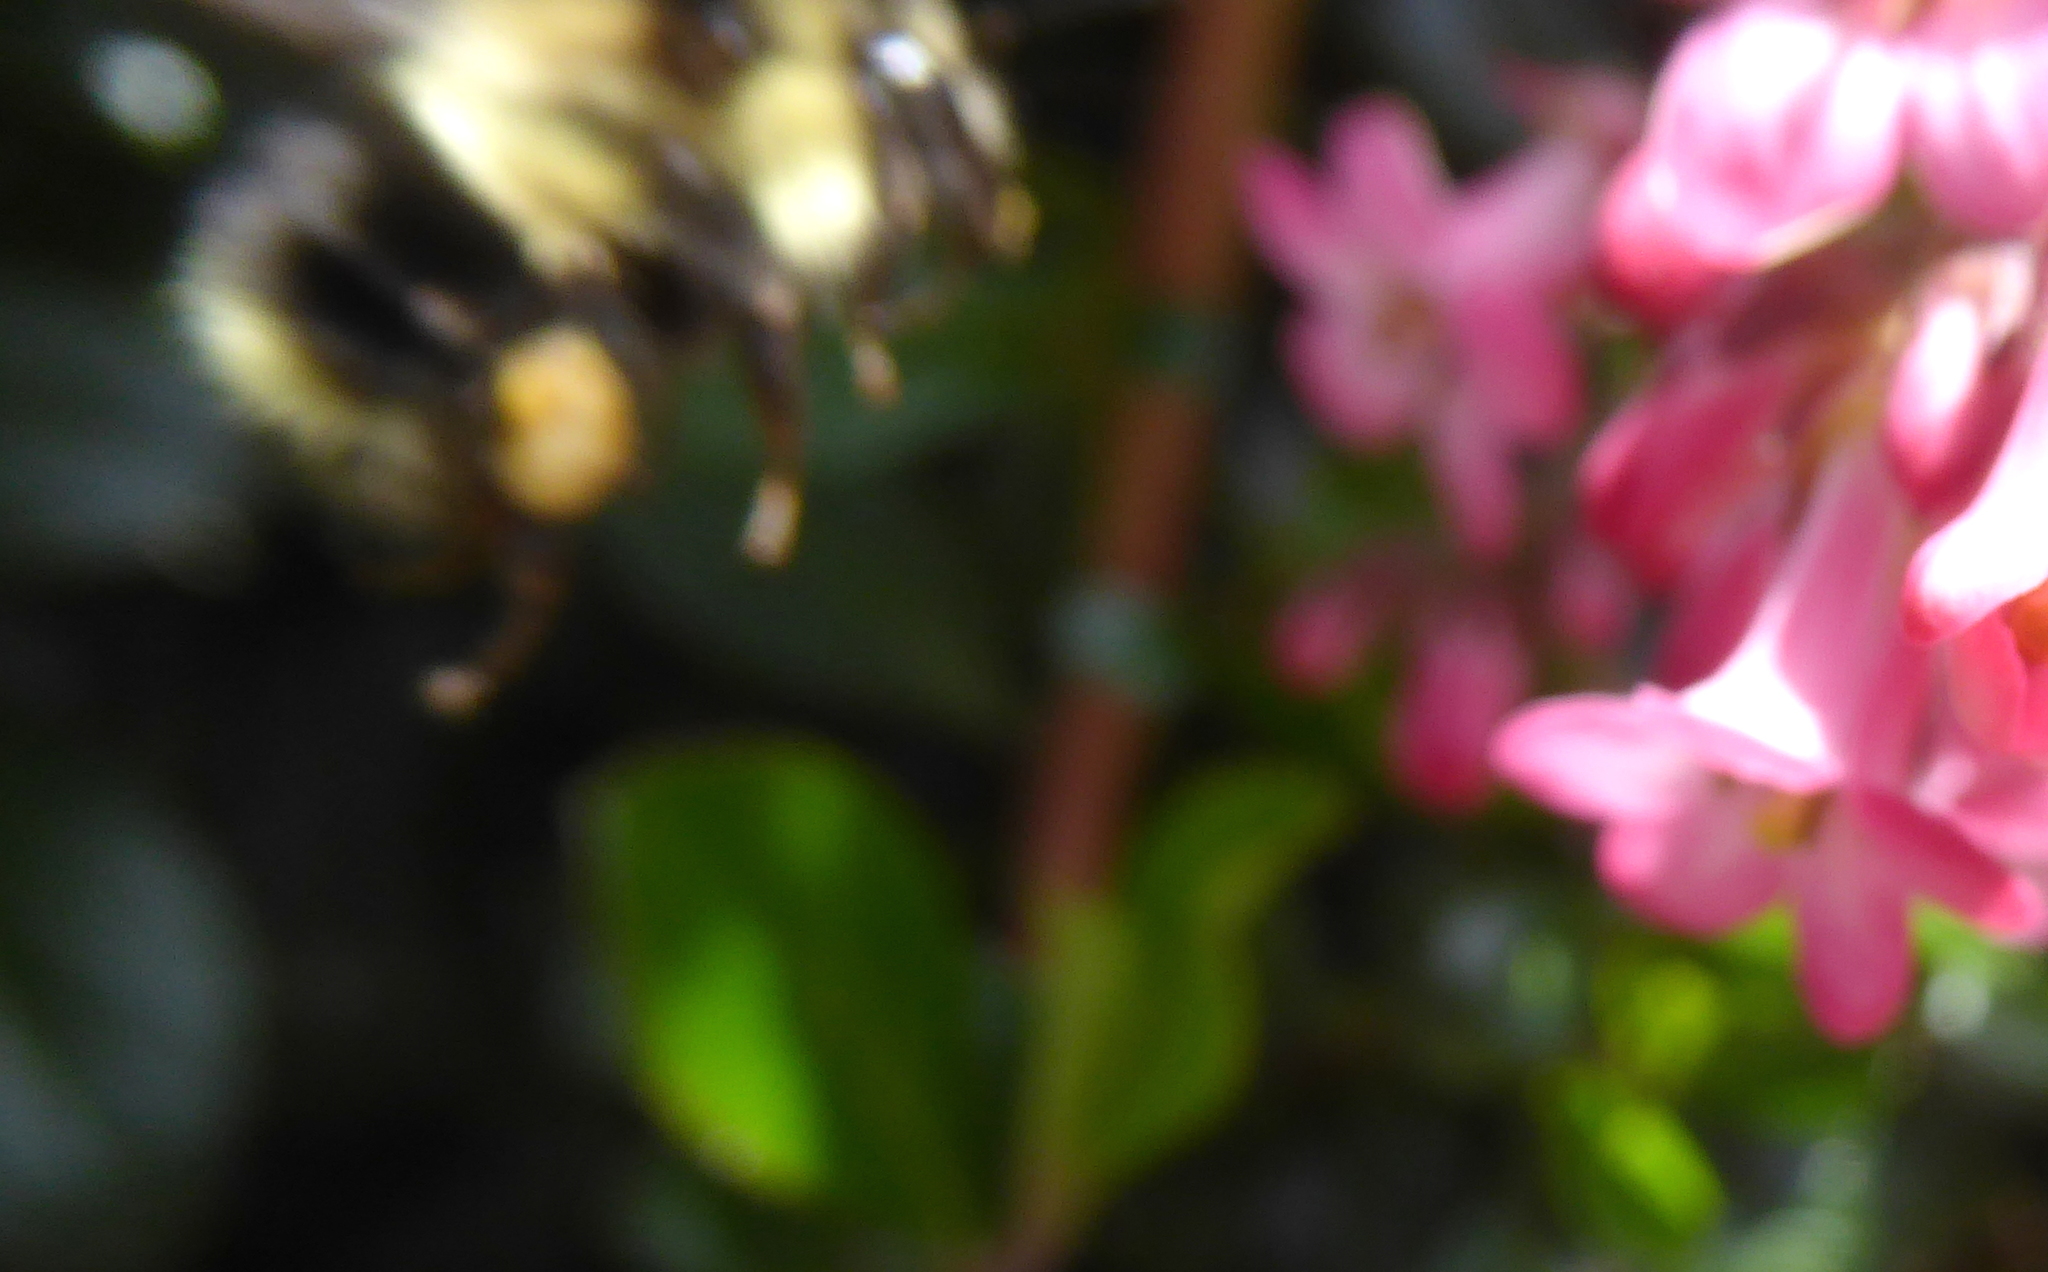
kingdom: Animalia
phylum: Arthropoda
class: Insecta
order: Hymenoptera
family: Apidae
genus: Bombus
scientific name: Bombus melanopygus
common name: Black tail bumble bee
